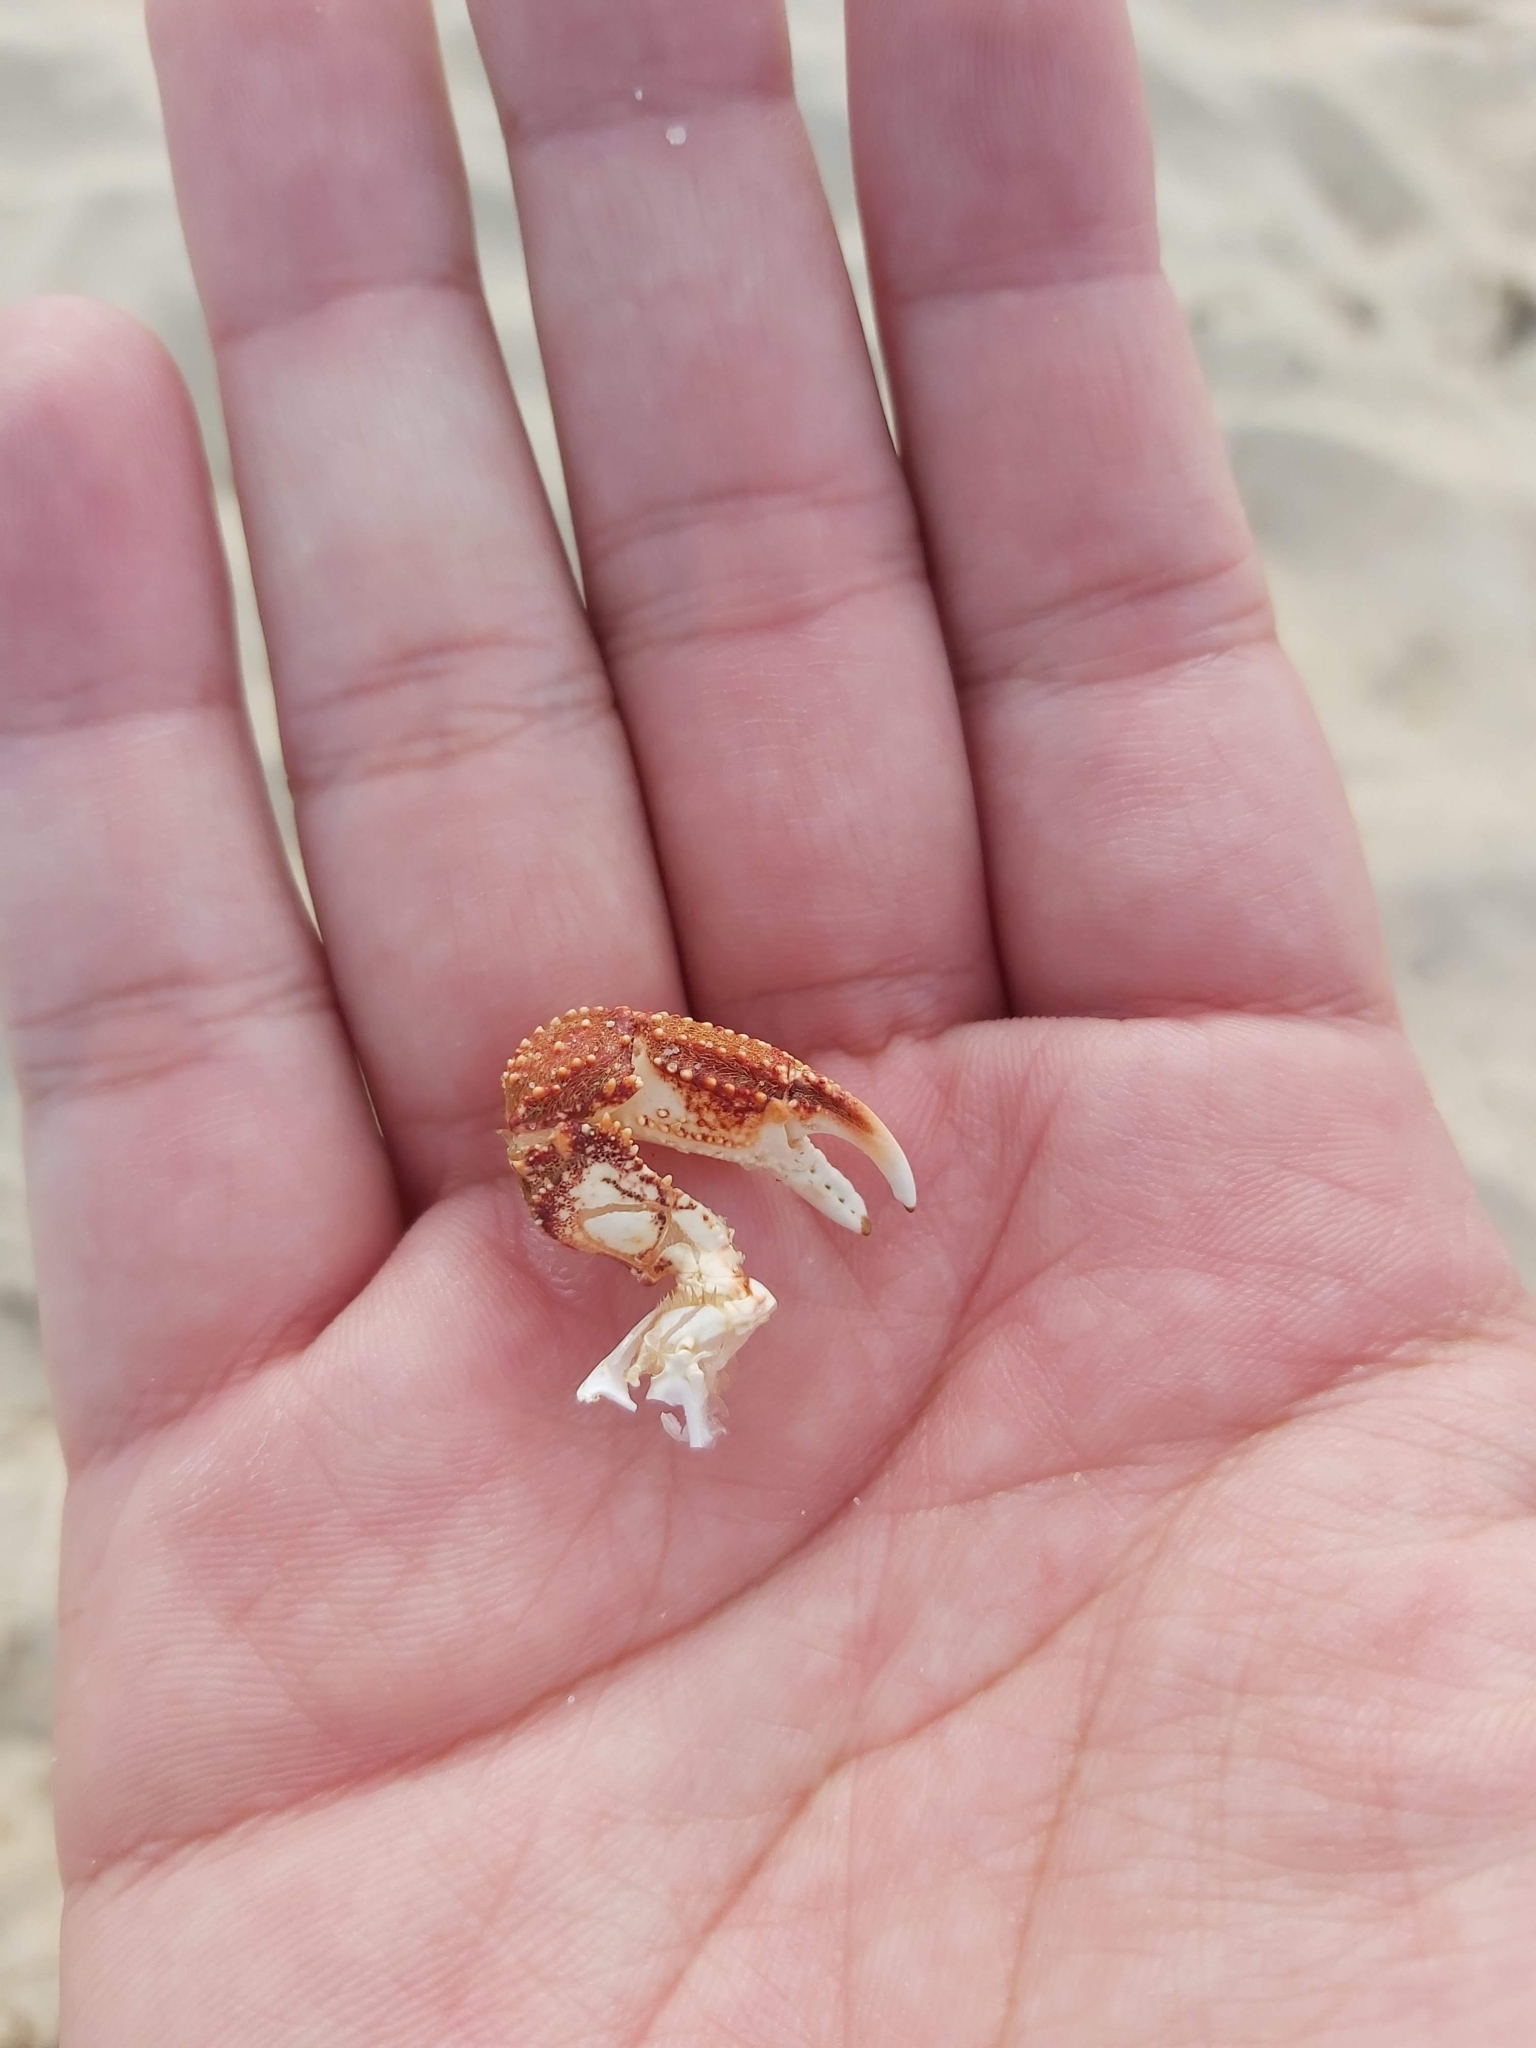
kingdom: Animalia
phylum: Arthropoda
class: Malacostraca
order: Decapoda
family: Plagusiidae
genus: Guinusia
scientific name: Guinusia chabrus
